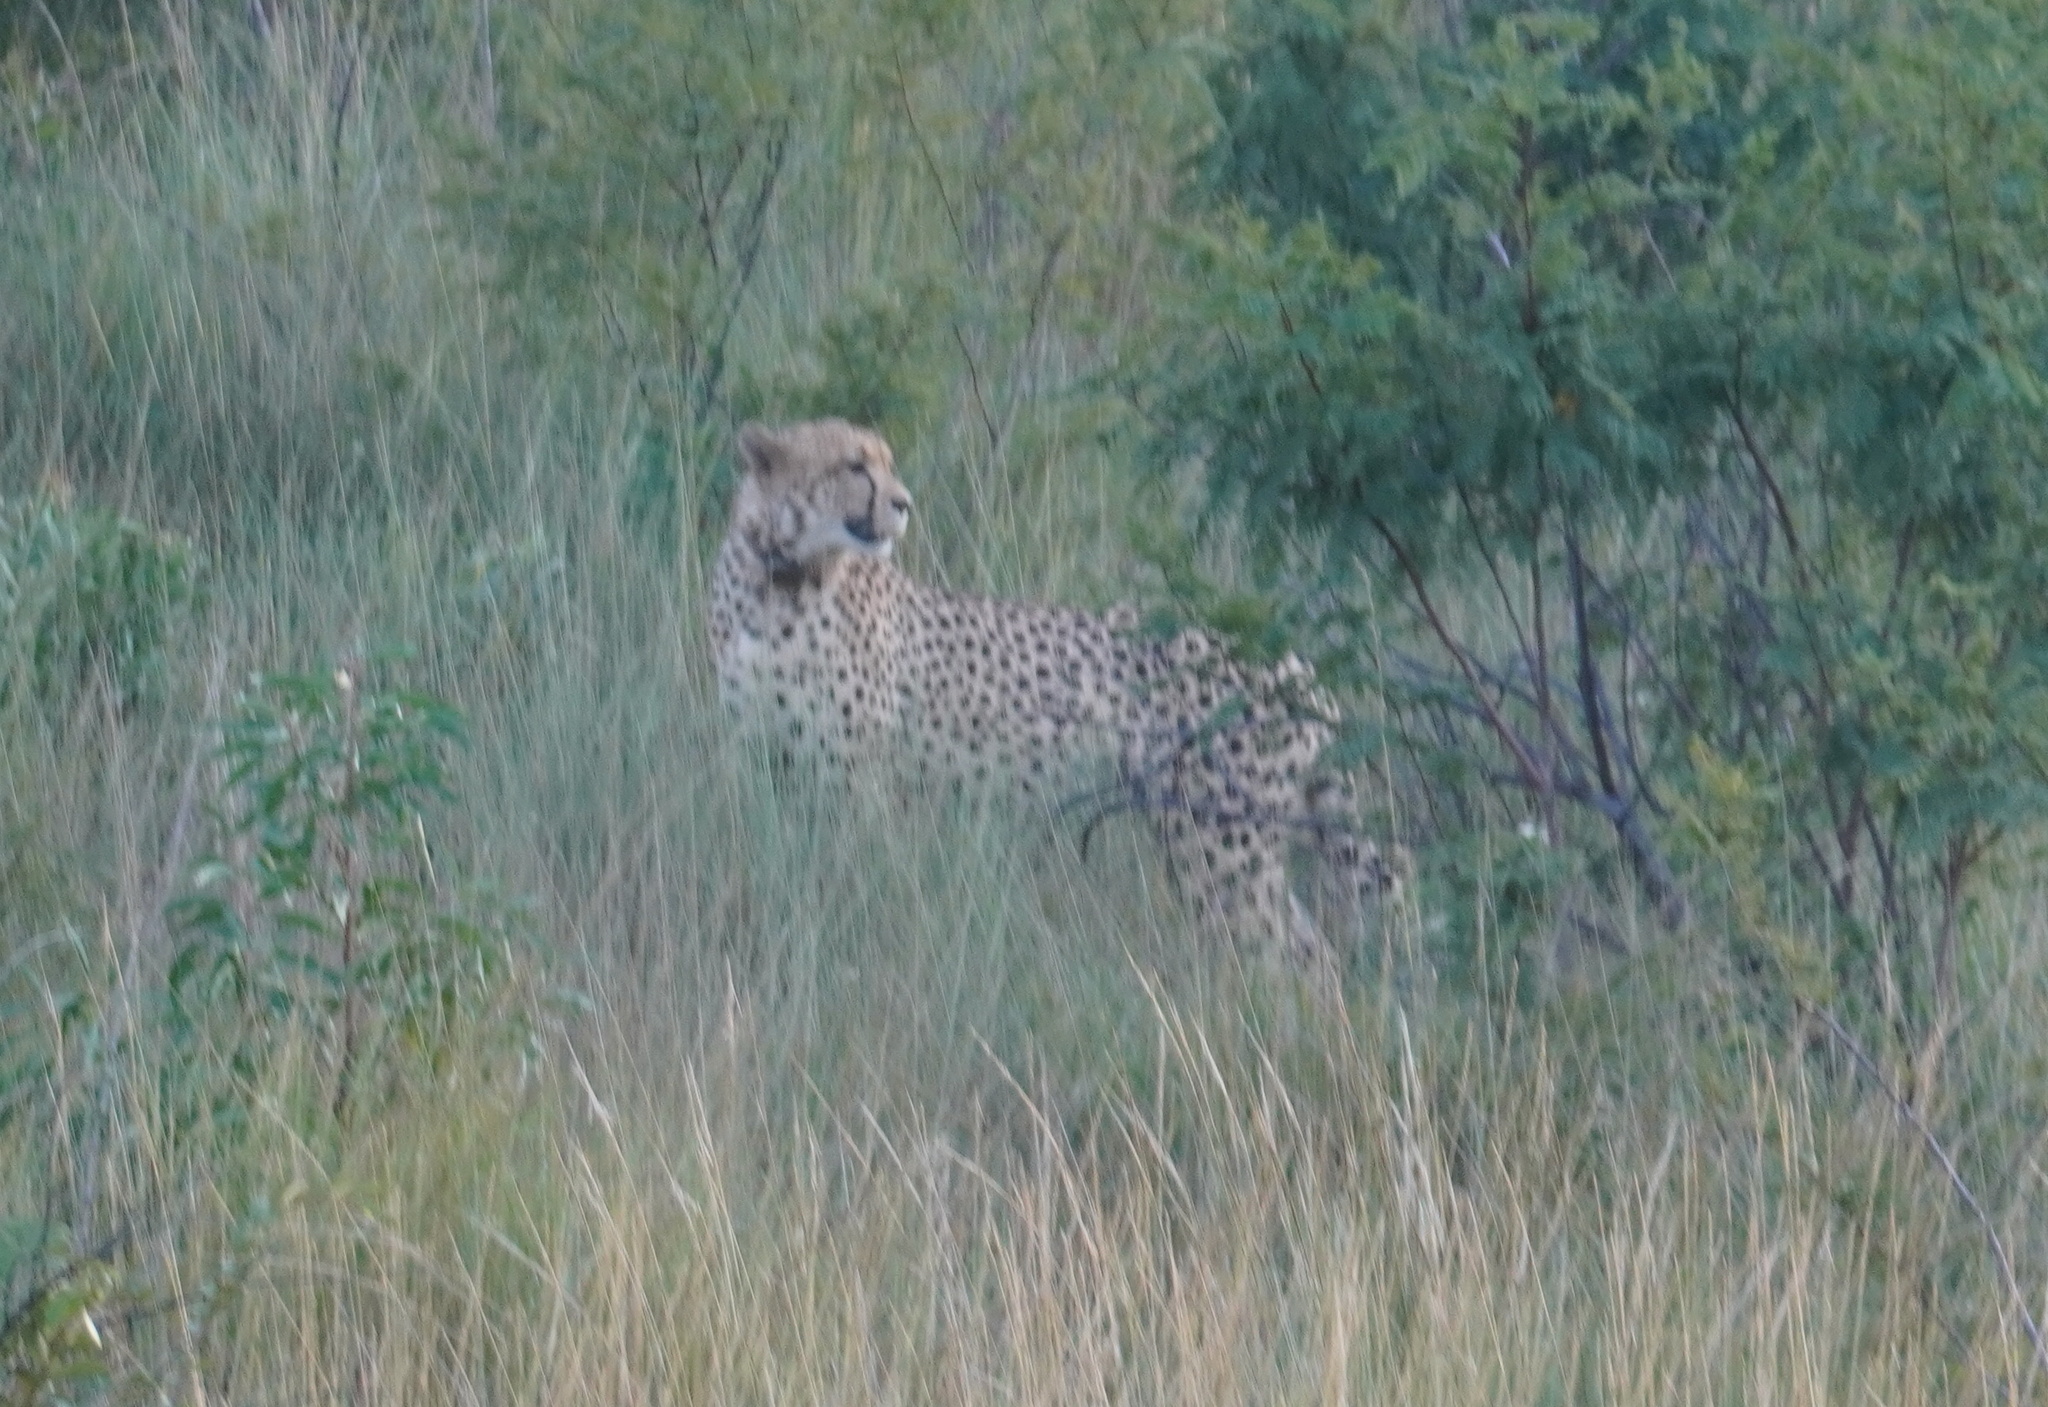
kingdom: Animalia
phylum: Chordata
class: Mammalia
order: Carnivora
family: Felidae
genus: Acinonyx
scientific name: Acinonyx jubatus
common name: Cheetah
